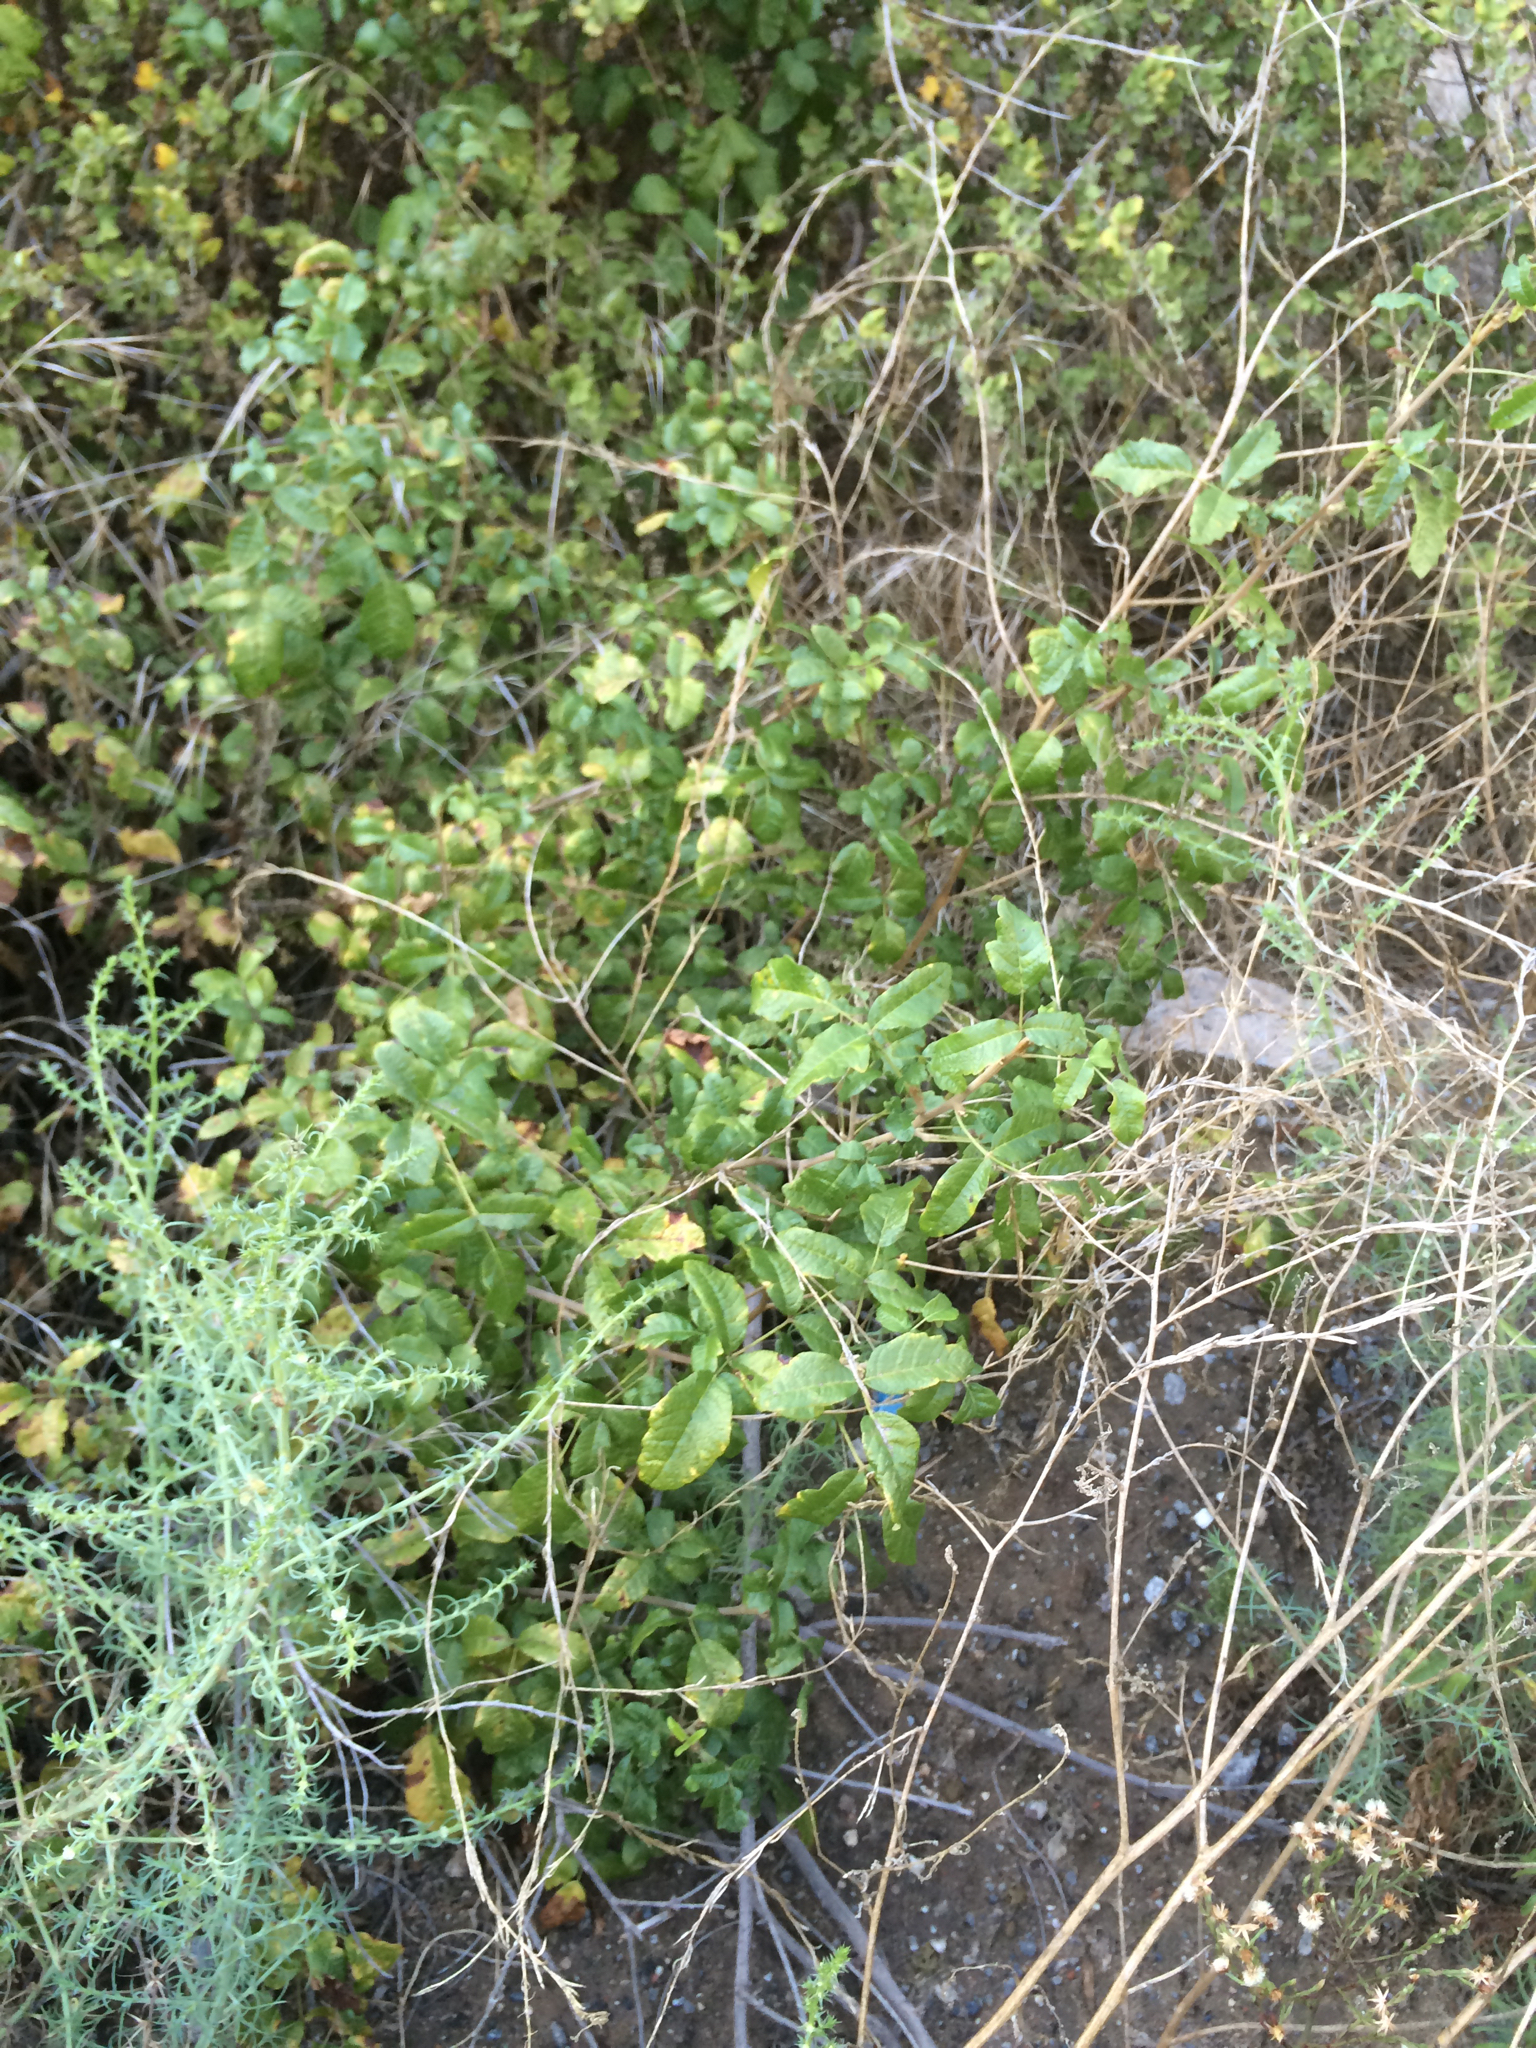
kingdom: Plantae
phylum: Tracheophyta
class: Magnoliopsida
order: Sapindales
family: Anacardiaceae
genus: Toxicodendron
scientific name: Toxicodendron diversilobum
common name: Pacific poison-oak
